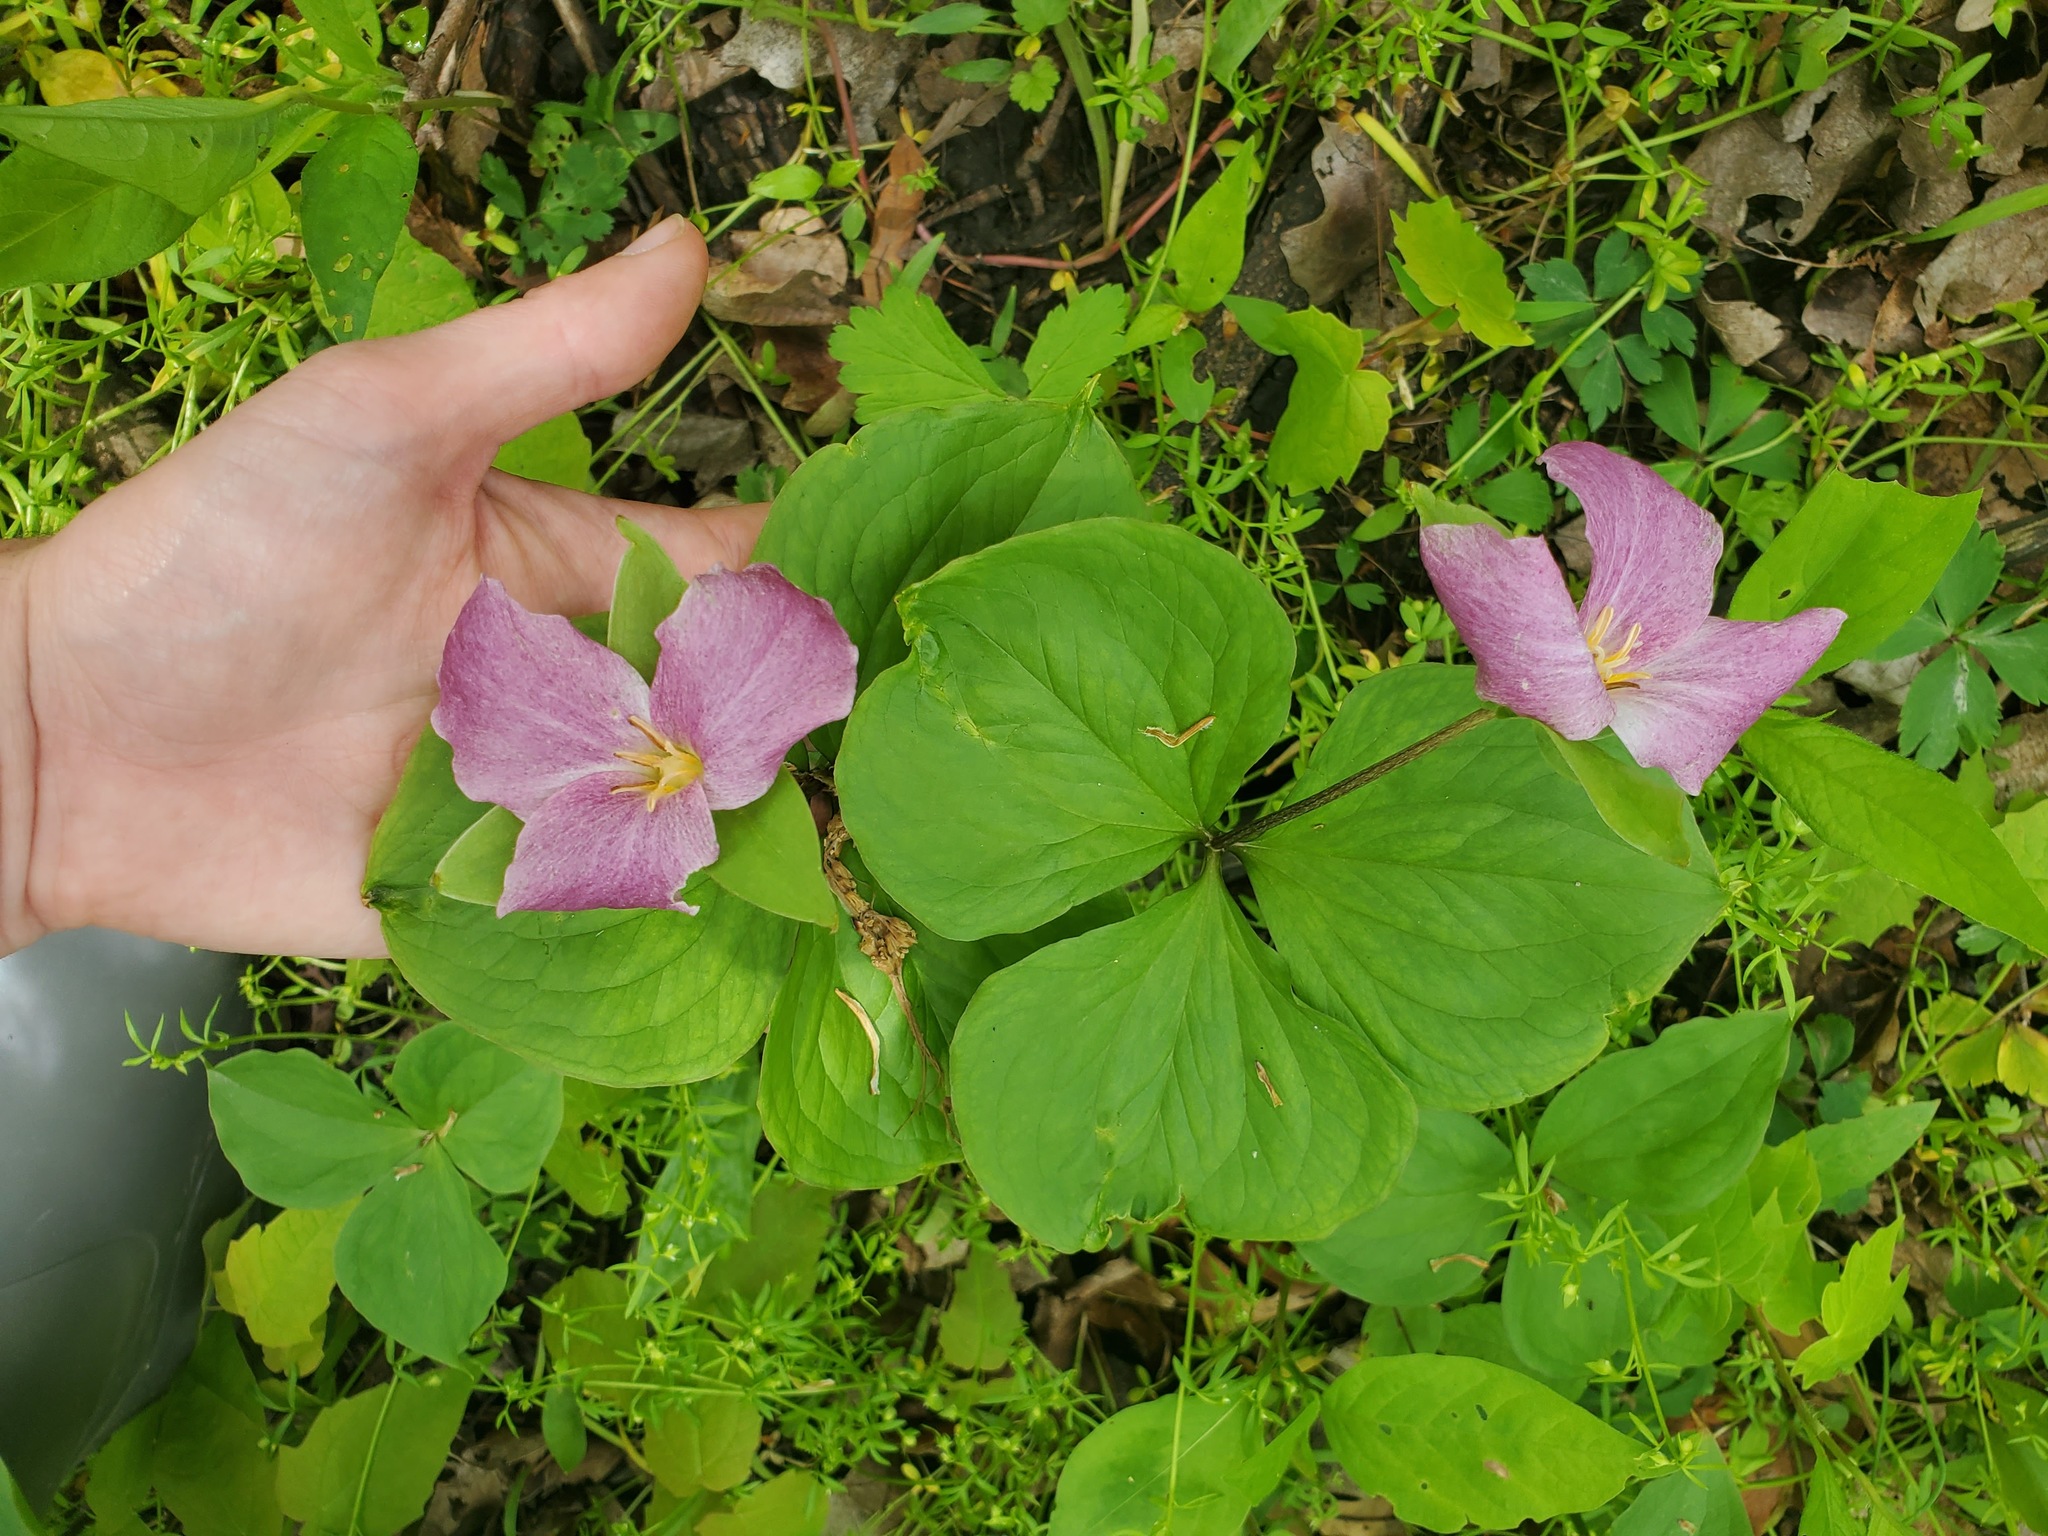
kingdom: Plantae
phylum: Tracheophyta
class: Liliopsida
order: Liliales
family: Melanthiaceae
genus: Trillium
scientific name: Trillium grandiflorum
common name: Great white trillium
